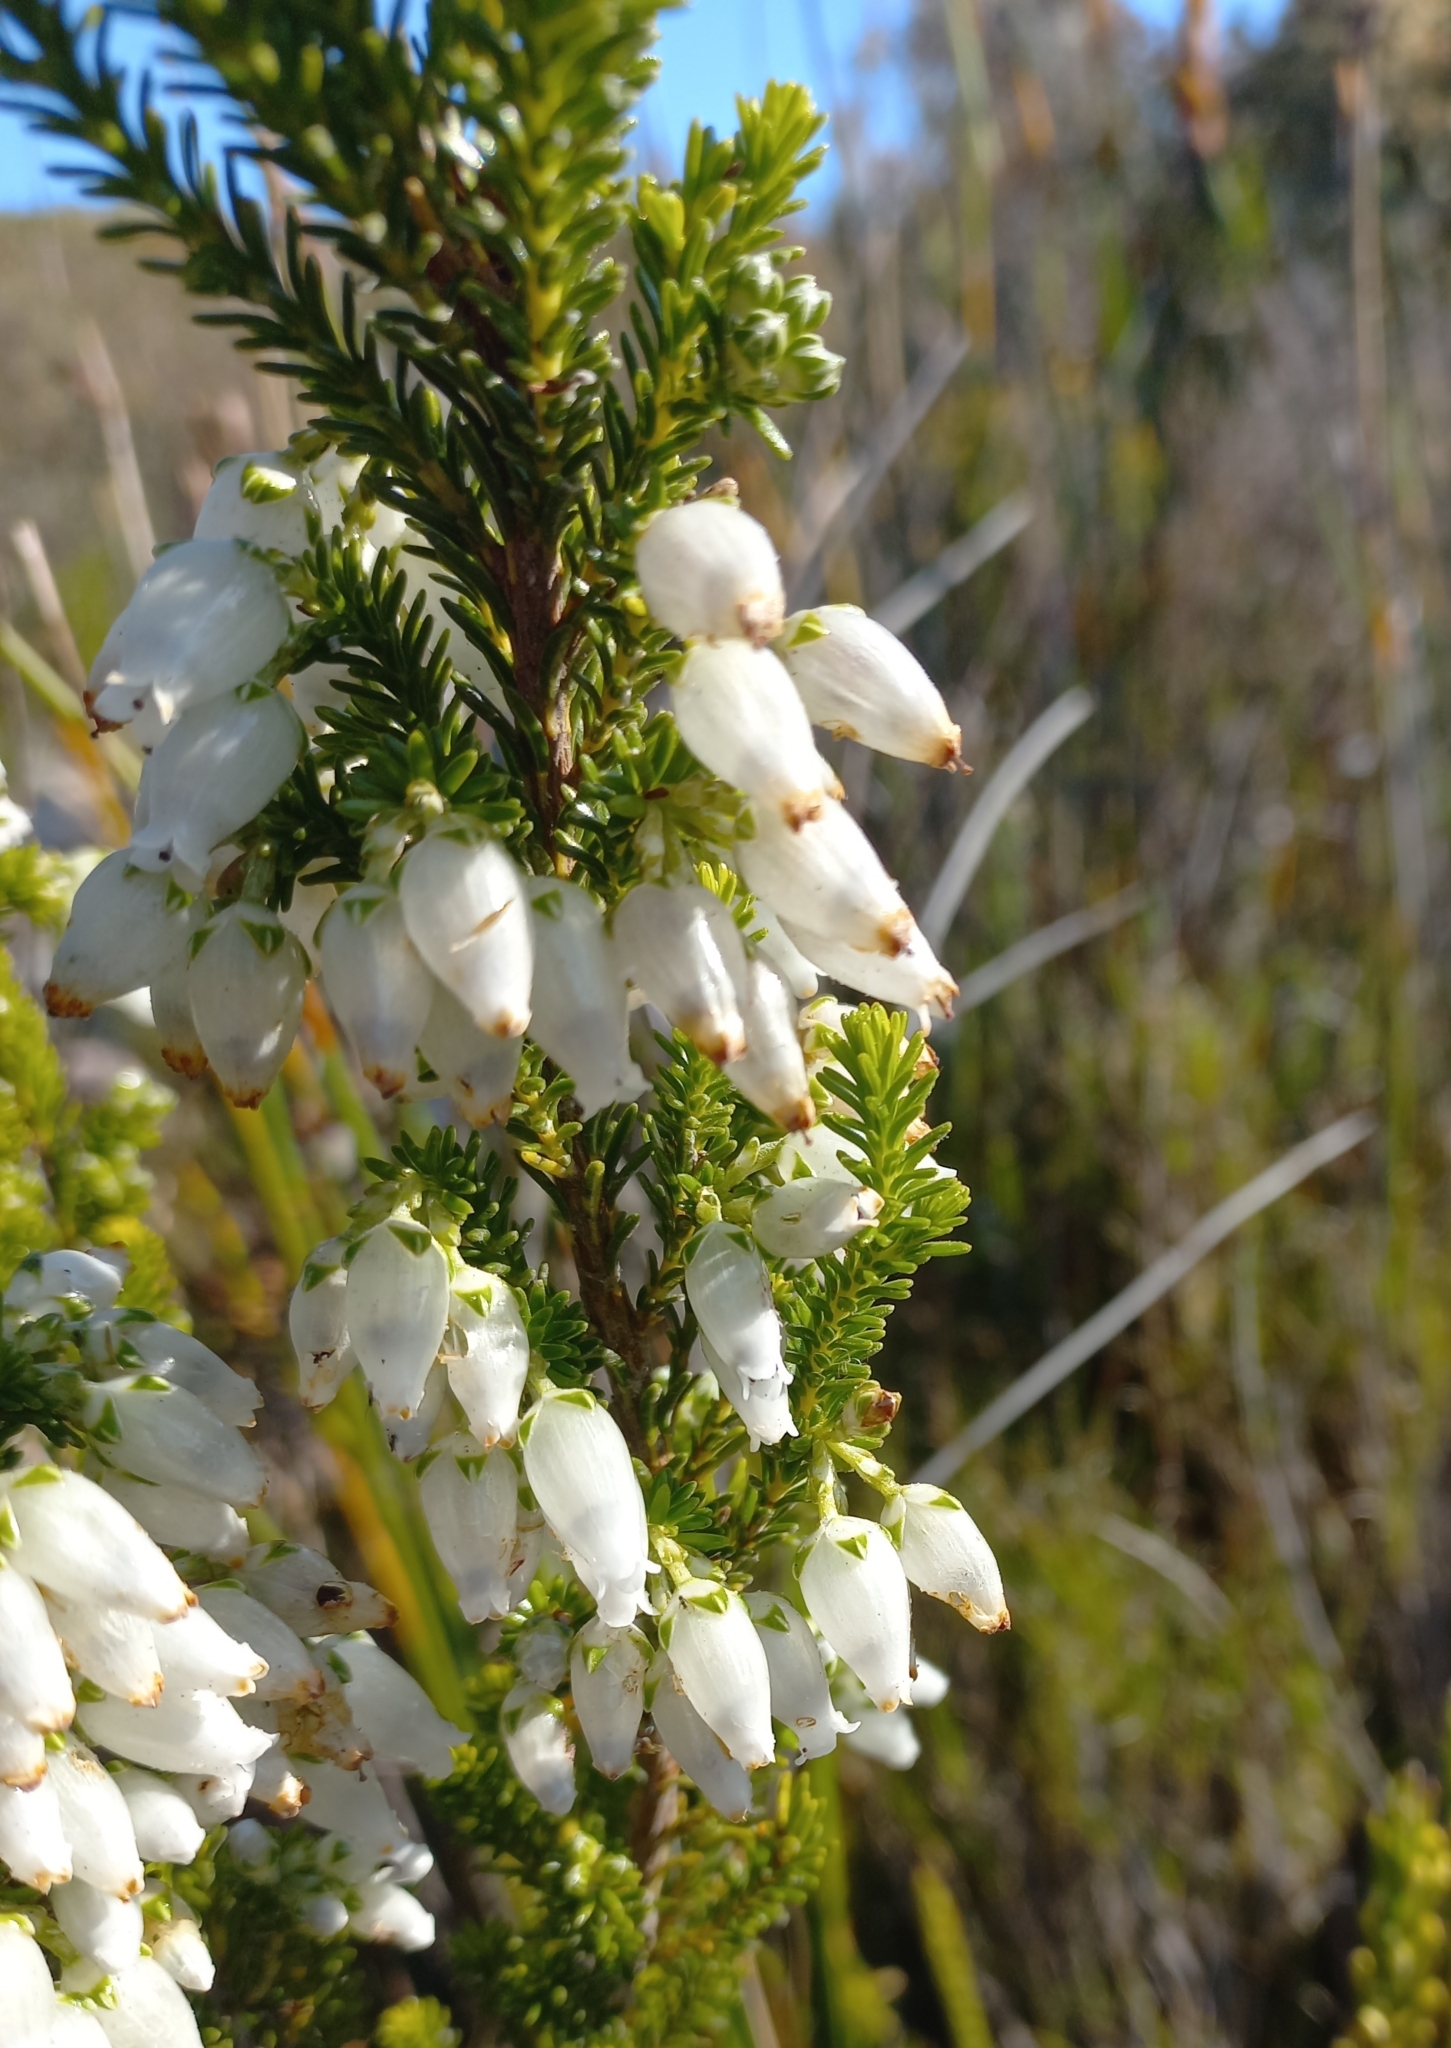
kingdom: Plantae
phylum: Tracheophyta
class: Magnoliopsida
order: Ericales
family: Ericaceae
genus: Erica
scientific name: Erica physodes
